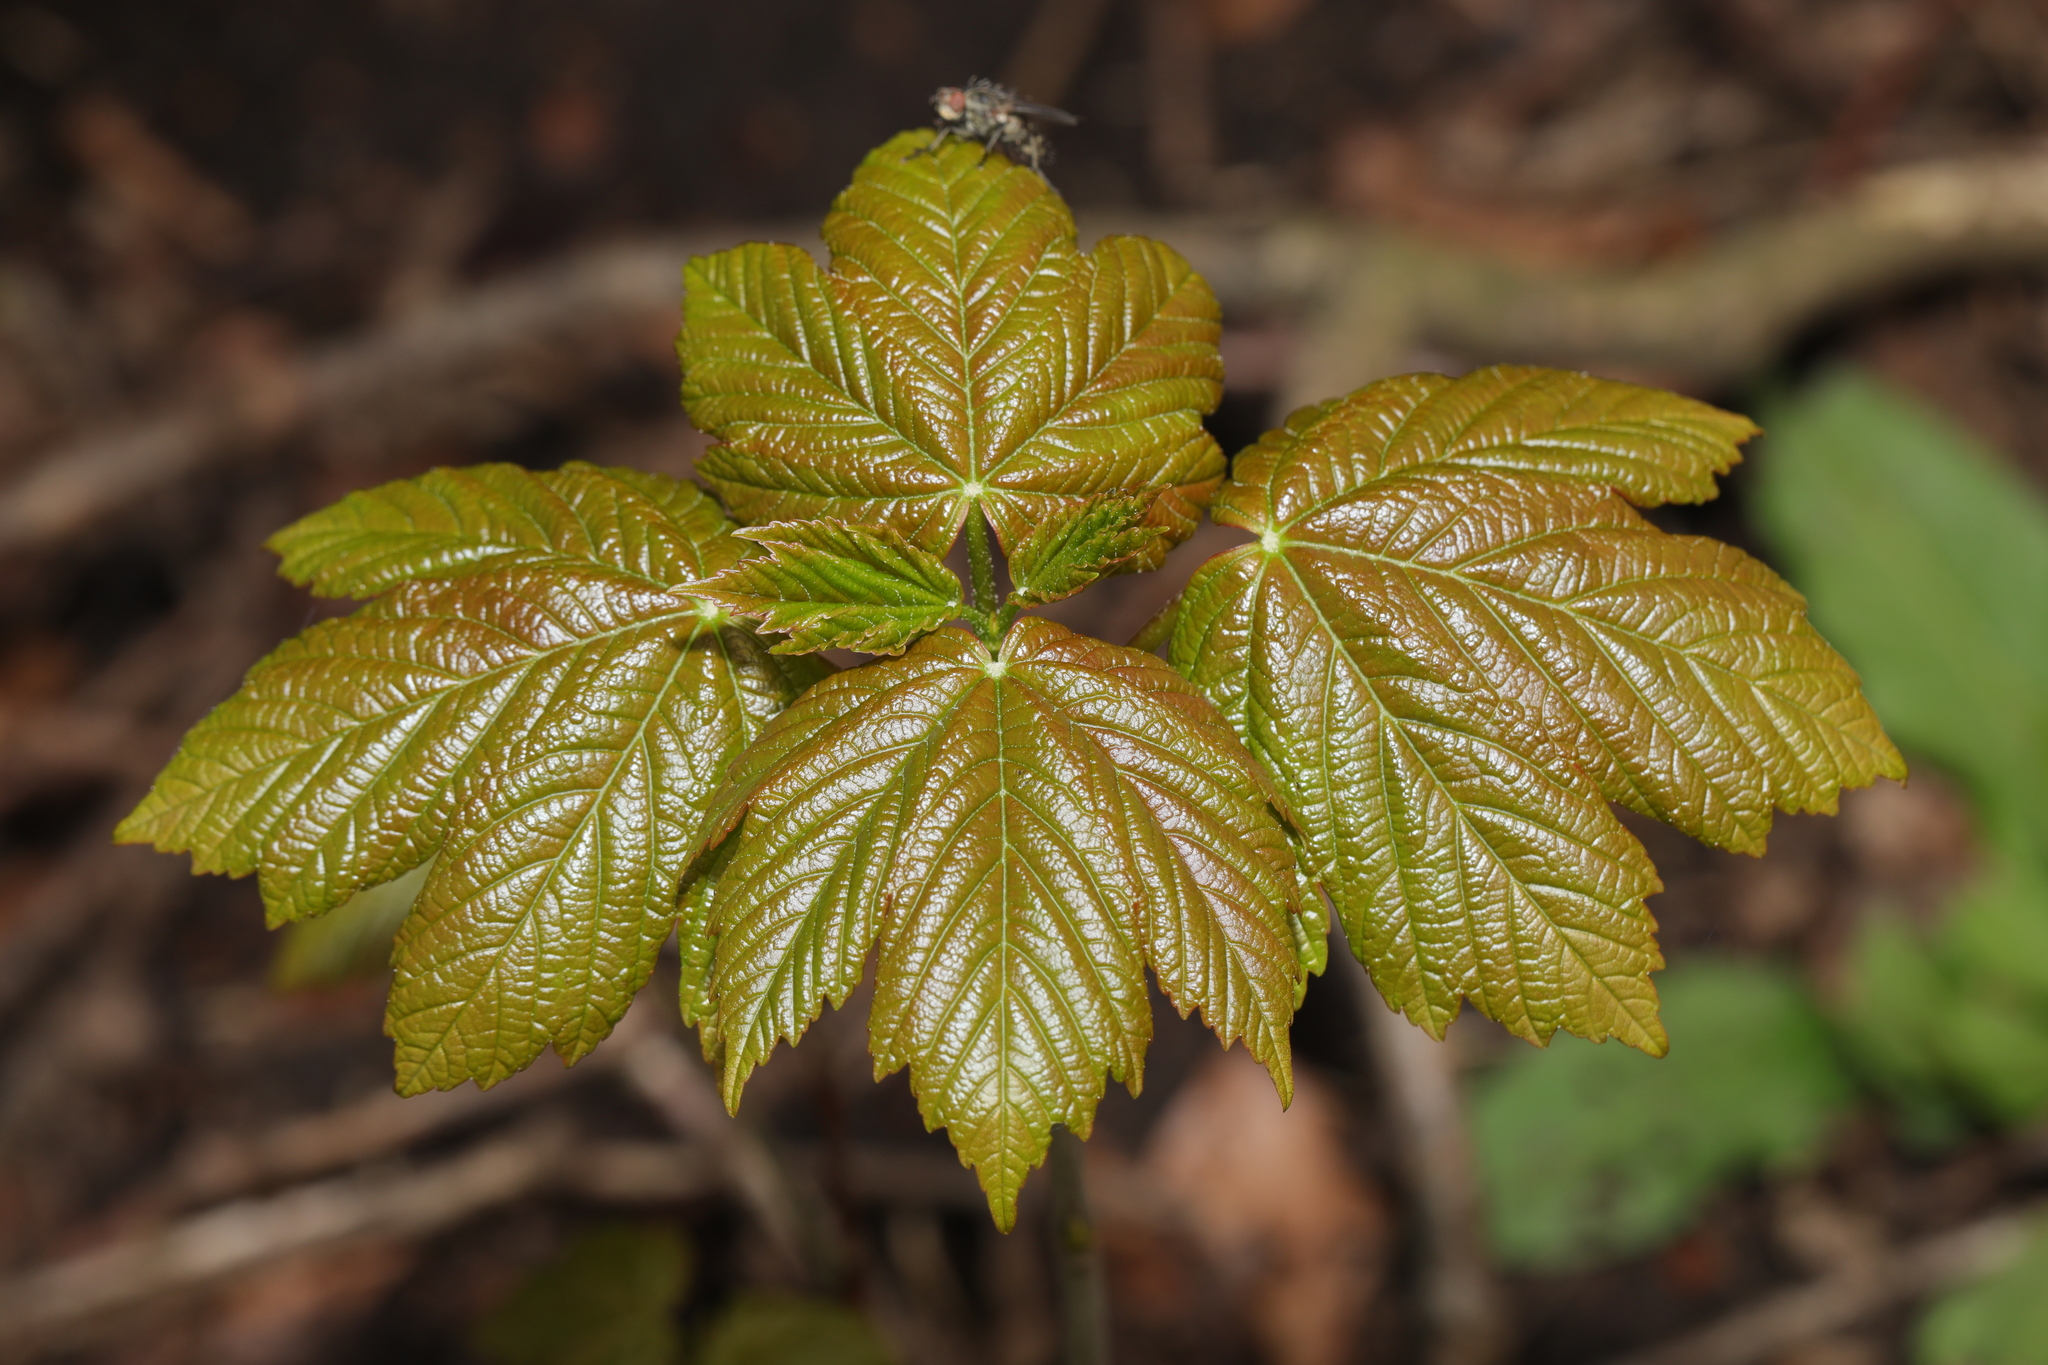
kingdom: Plantae
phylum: Tracheophyta
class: Magnoliopsida
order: Sapindales
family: Sapindaceae
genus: Acer
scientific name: Acer pseudoplatanus
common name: Sycamore
